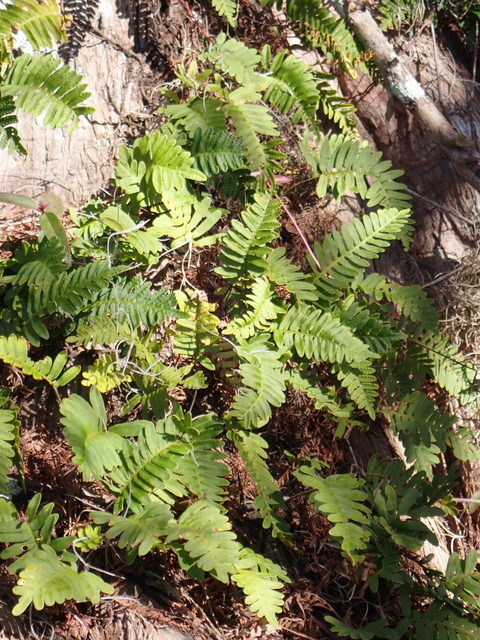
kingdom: Plantae
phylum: Tracheophyta
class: Polypodiopsida
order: Polypodiales
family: Polypodiaceae
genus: Pleopeltis
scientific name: Pleopeltis michauxiana
